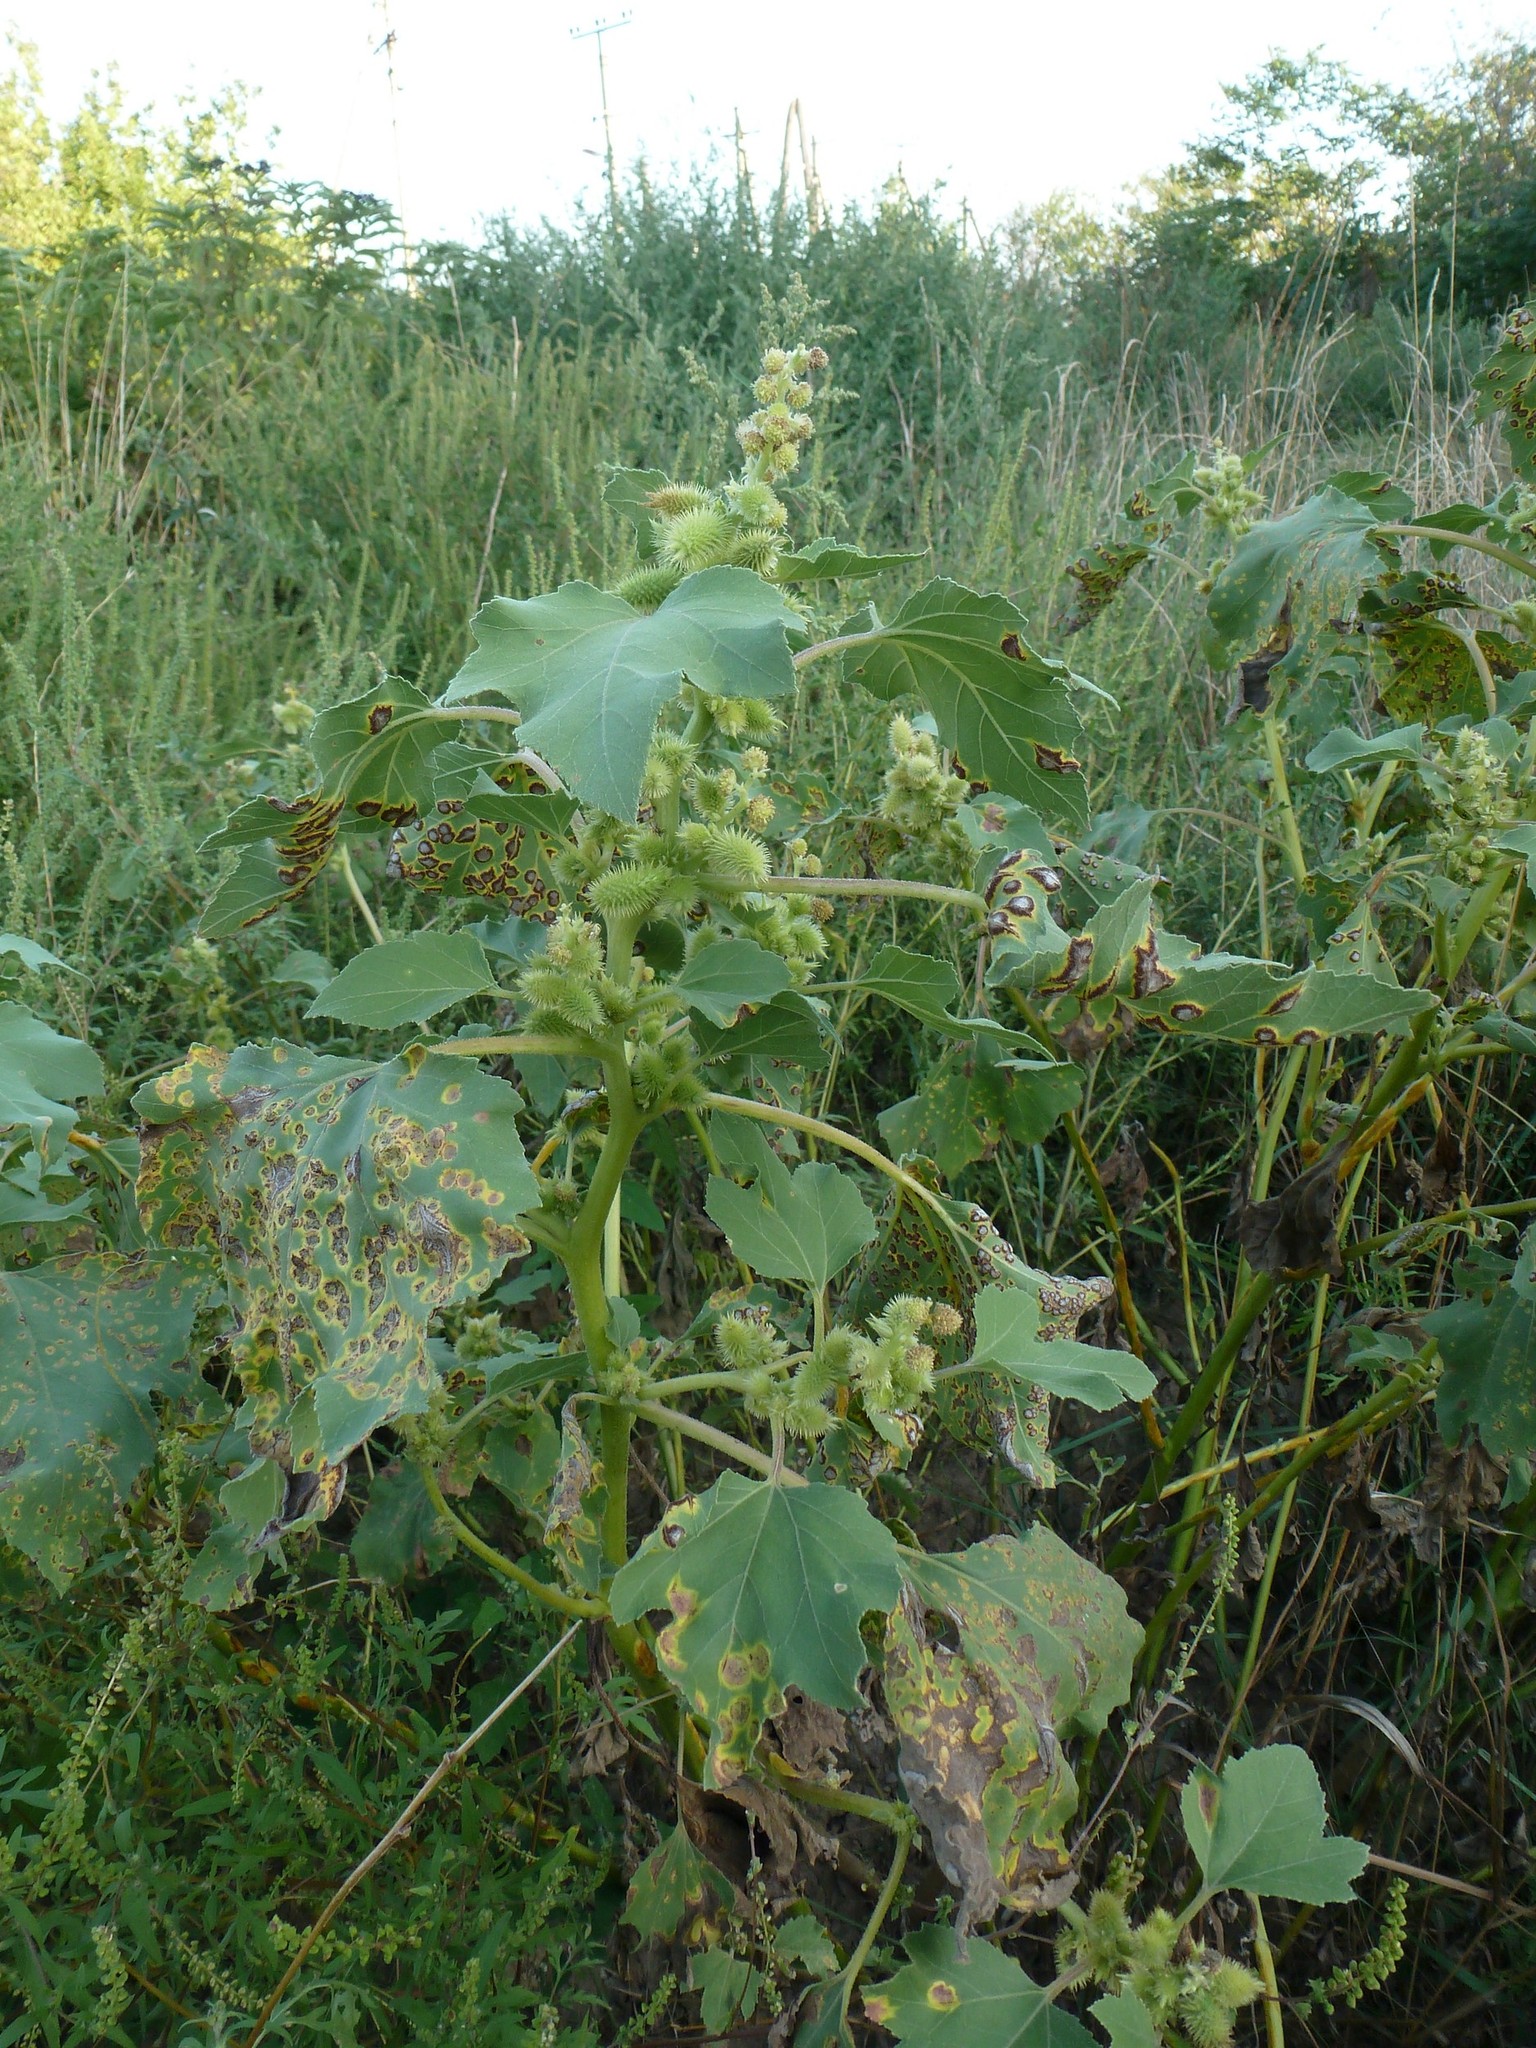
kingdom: Plantae
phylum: Tracheophyta
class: Magnoliopsida
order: Asterales
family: Asteraceae
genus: Xanthium
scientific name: Xanthium orientale
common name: Californian burr
